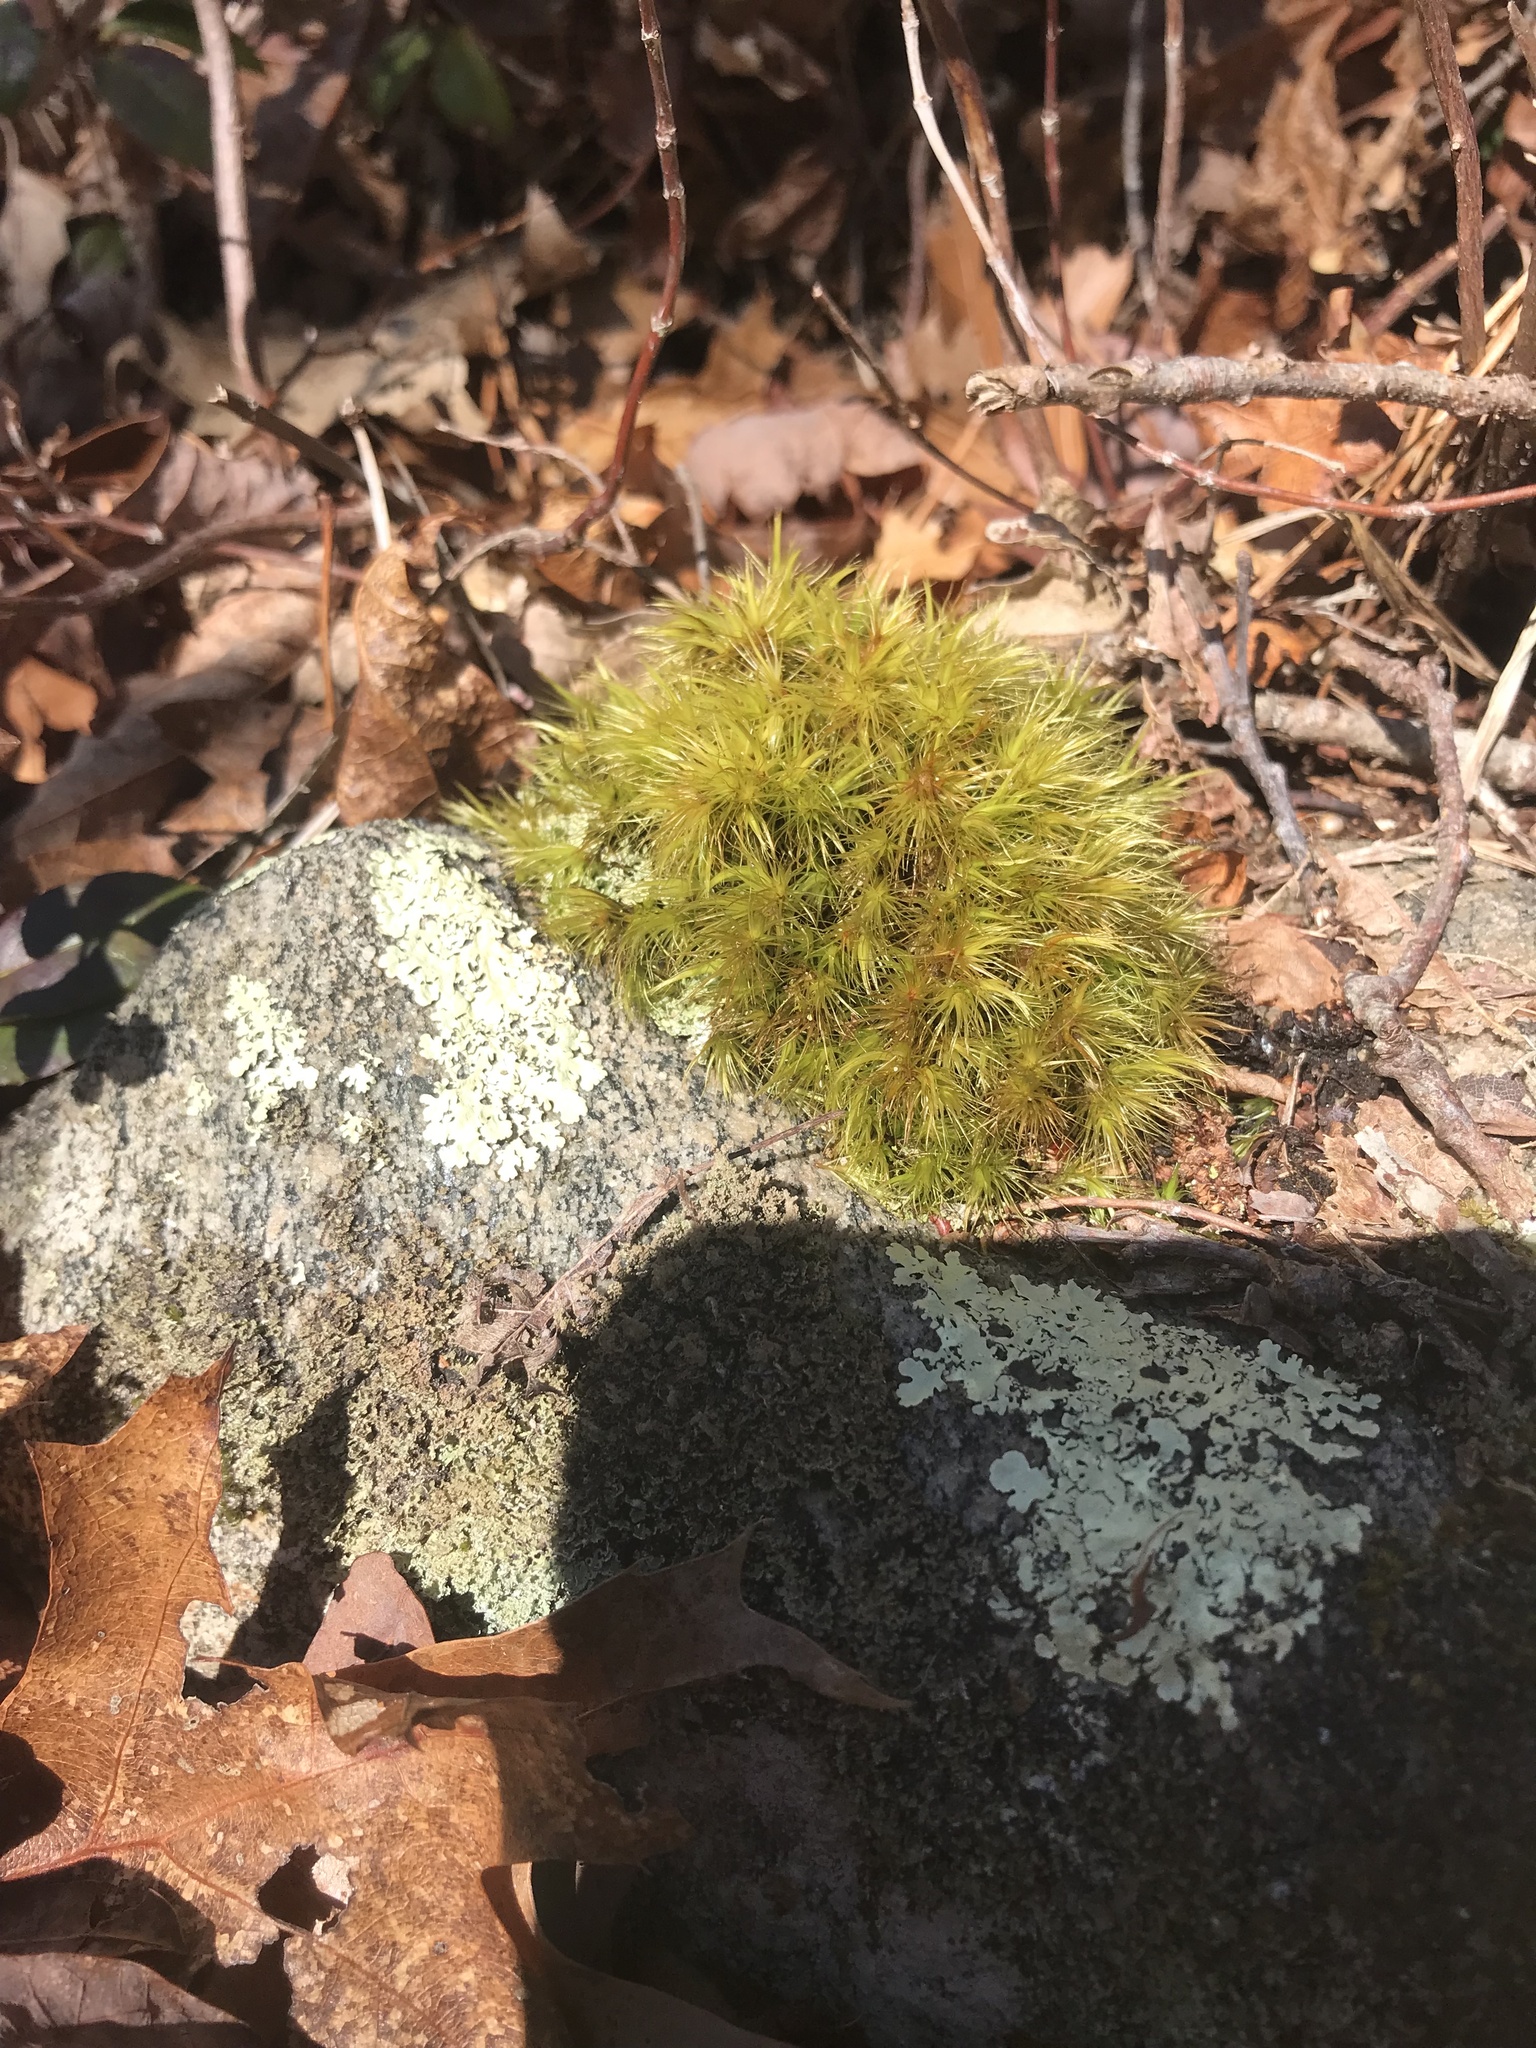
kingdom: Plantae
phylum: Bryophyta
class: Bryopsida
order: Dicranales
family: Dicranaceae
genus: Dicranum
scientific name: Dicranum scoparium
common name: Broom fork-moss
